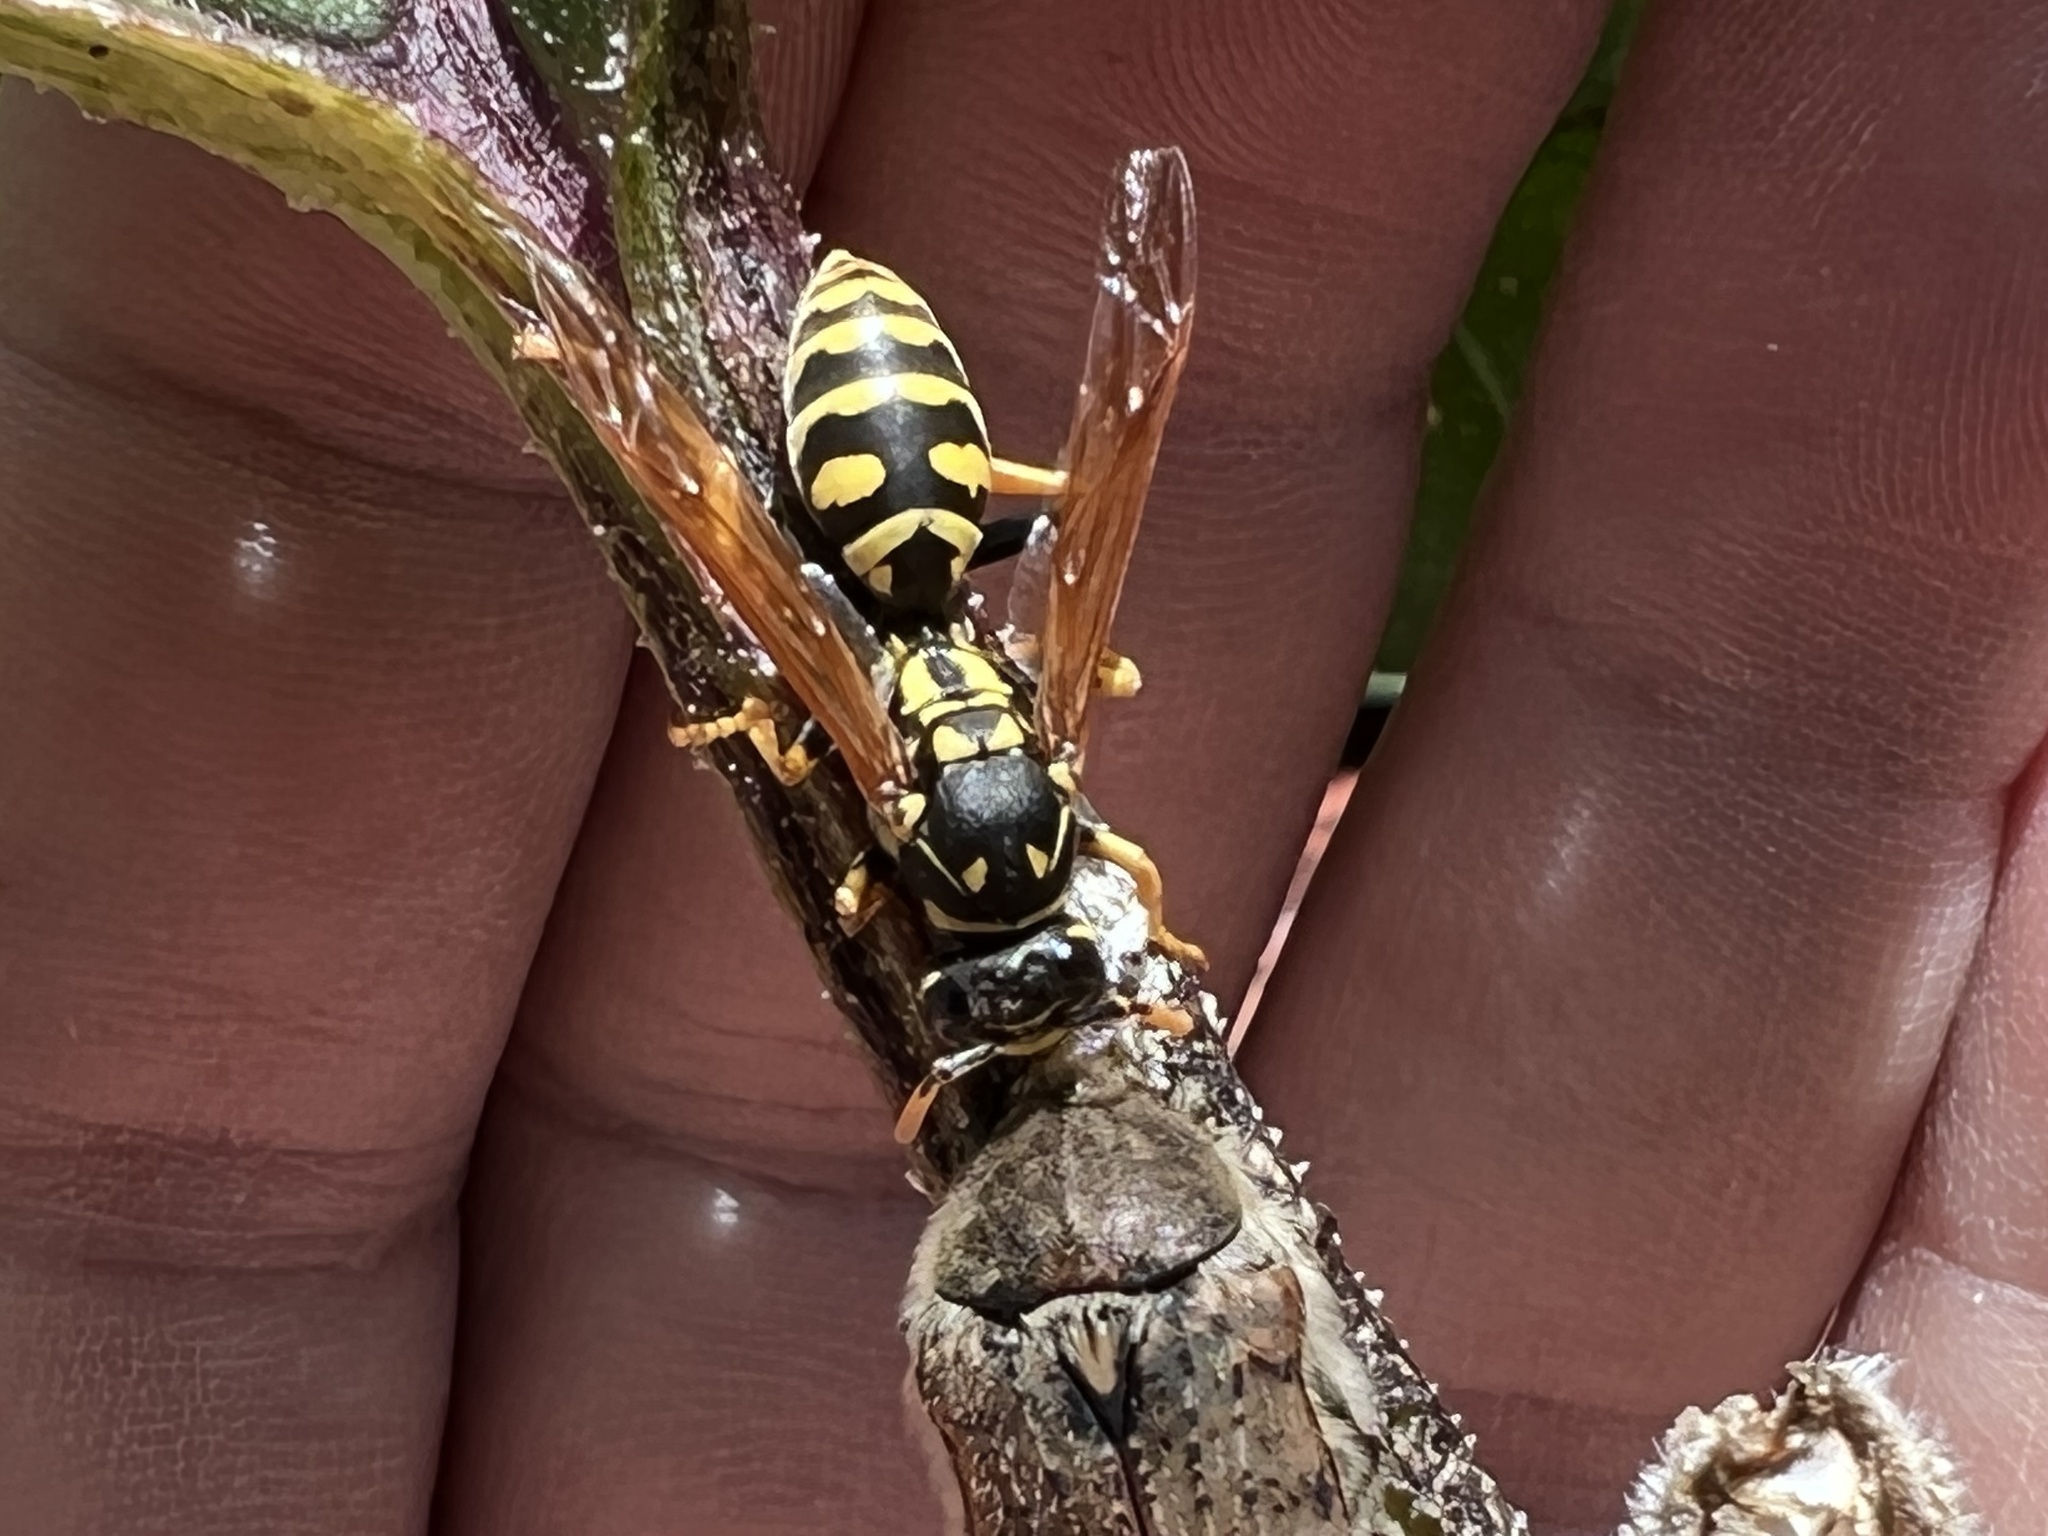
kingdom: Animalia
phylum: Arthropoda
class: Insecta
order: Hymenoptera
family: Eumenidae
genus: Polistes
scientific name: Polistes dominula
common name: Paper wasp
